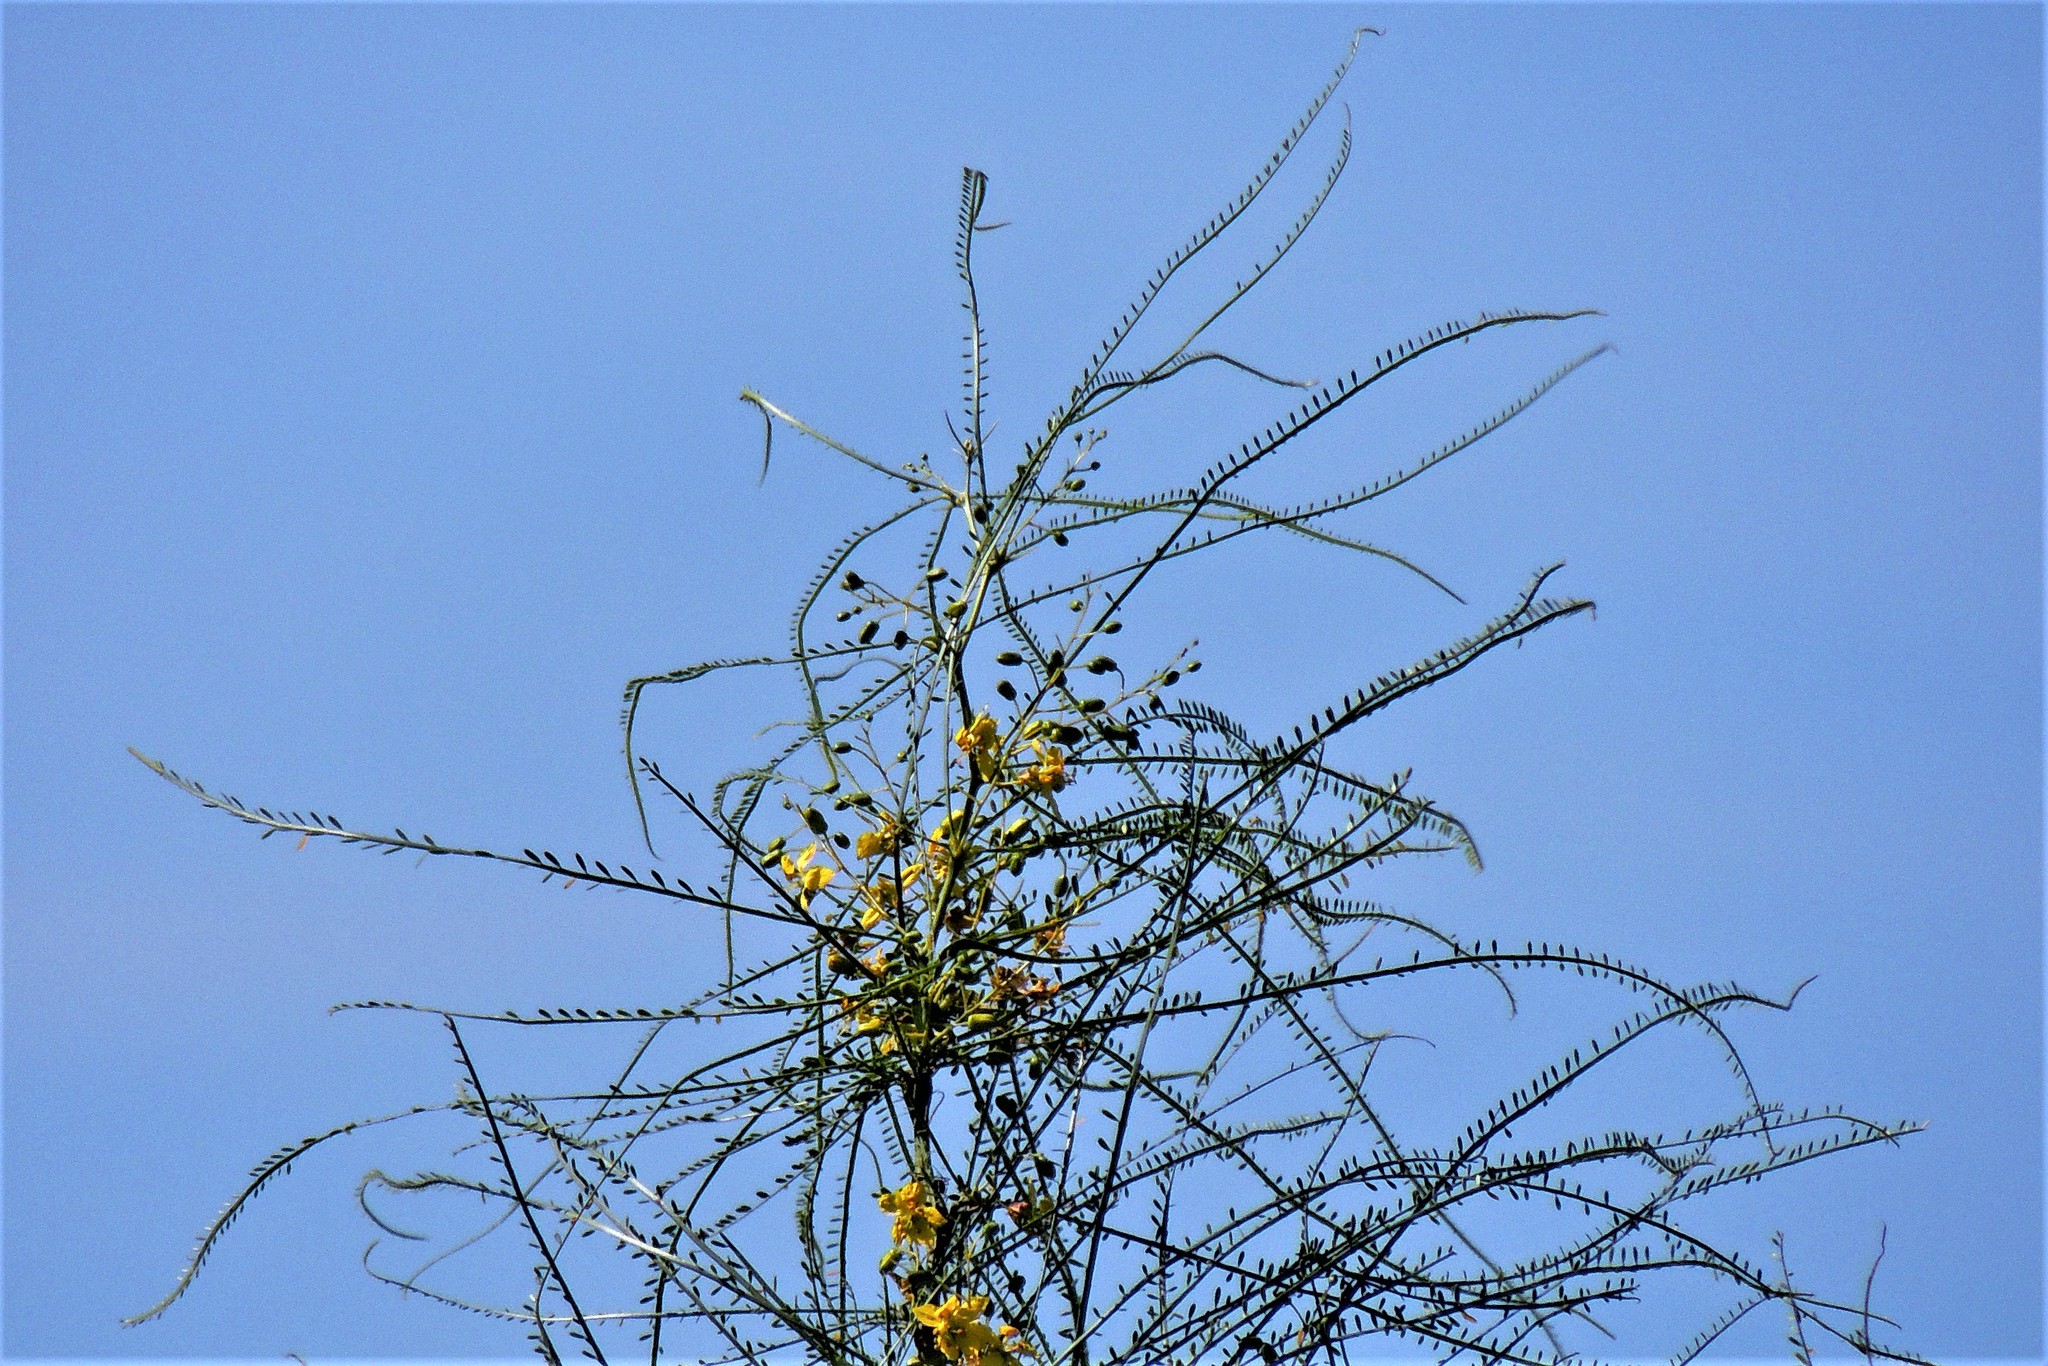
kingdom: Plantae
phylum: Tracheophyta
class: Magnoliopsida
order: Fabales
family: Fabaceae
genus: Parkinsonia
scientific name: Parkinsonia aculeata
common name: Jerusalem thorn
